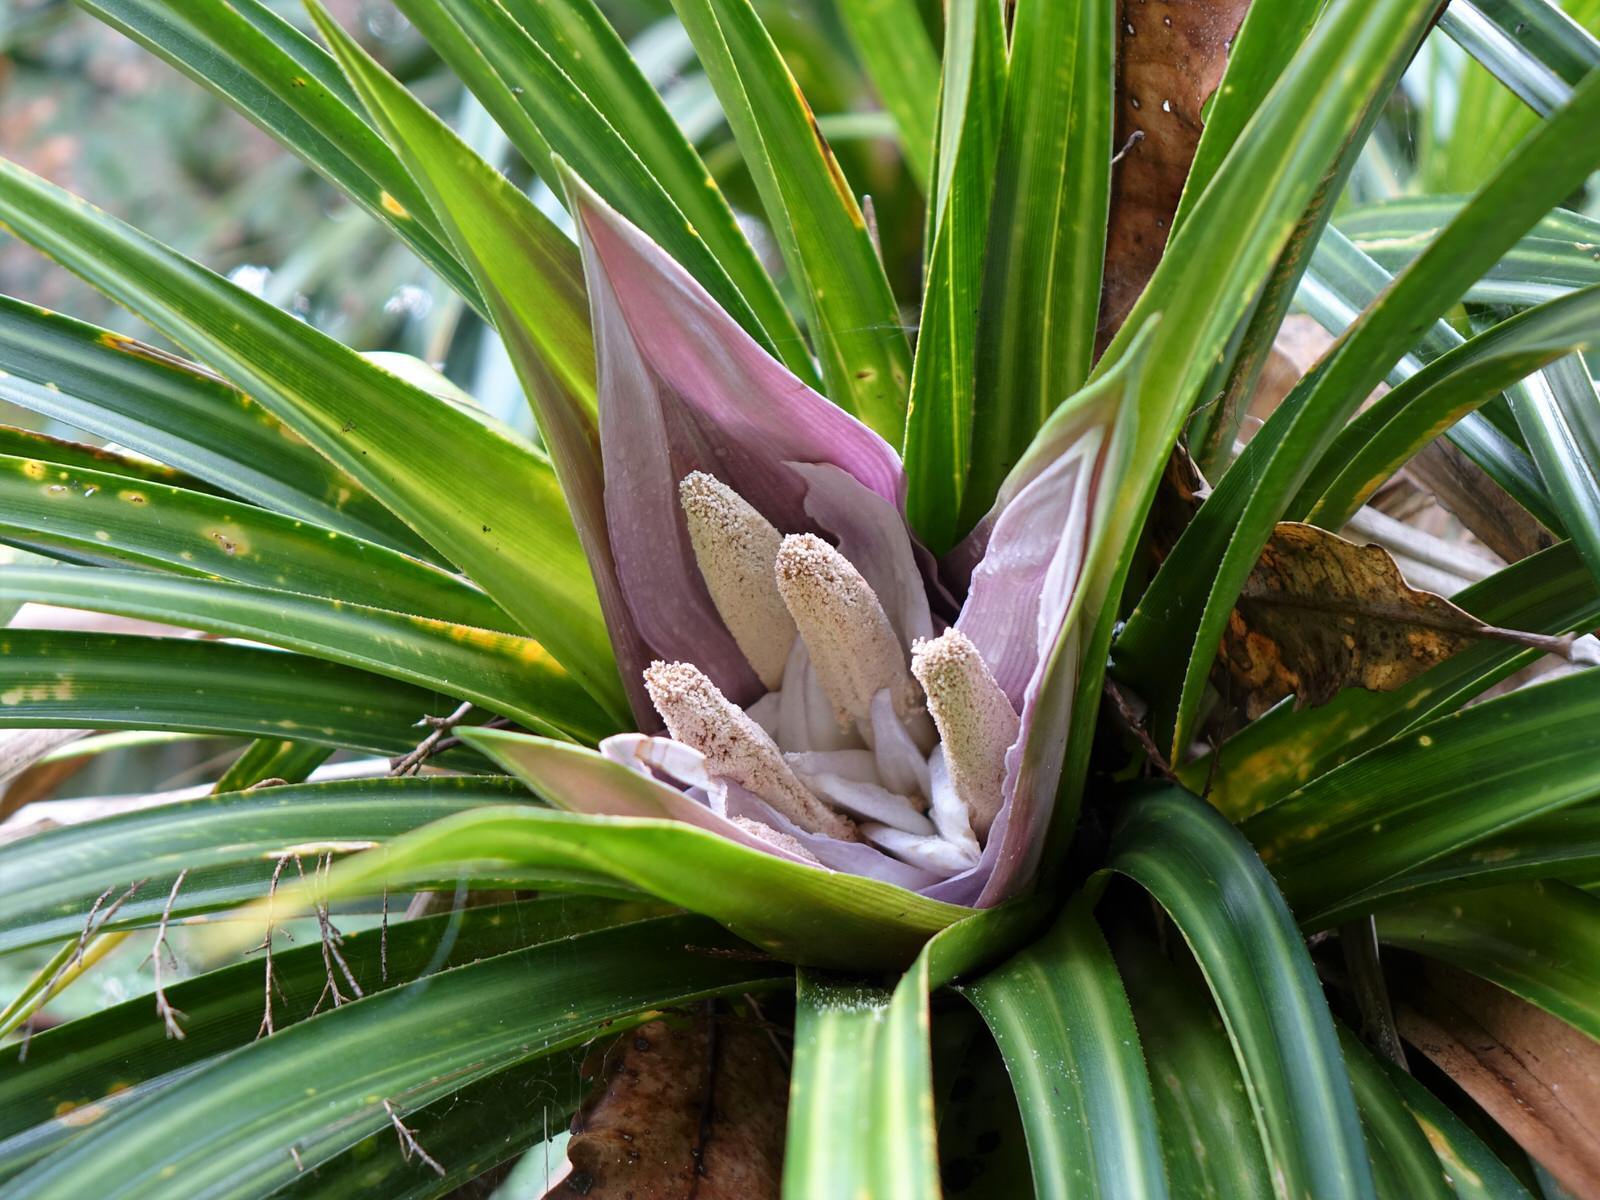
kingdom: Plantae
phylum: Tracheophyta
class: Liliopsida
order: Pandanales
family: Pandanaceae
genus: Freycinetia
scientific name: Freycinetia banksii
